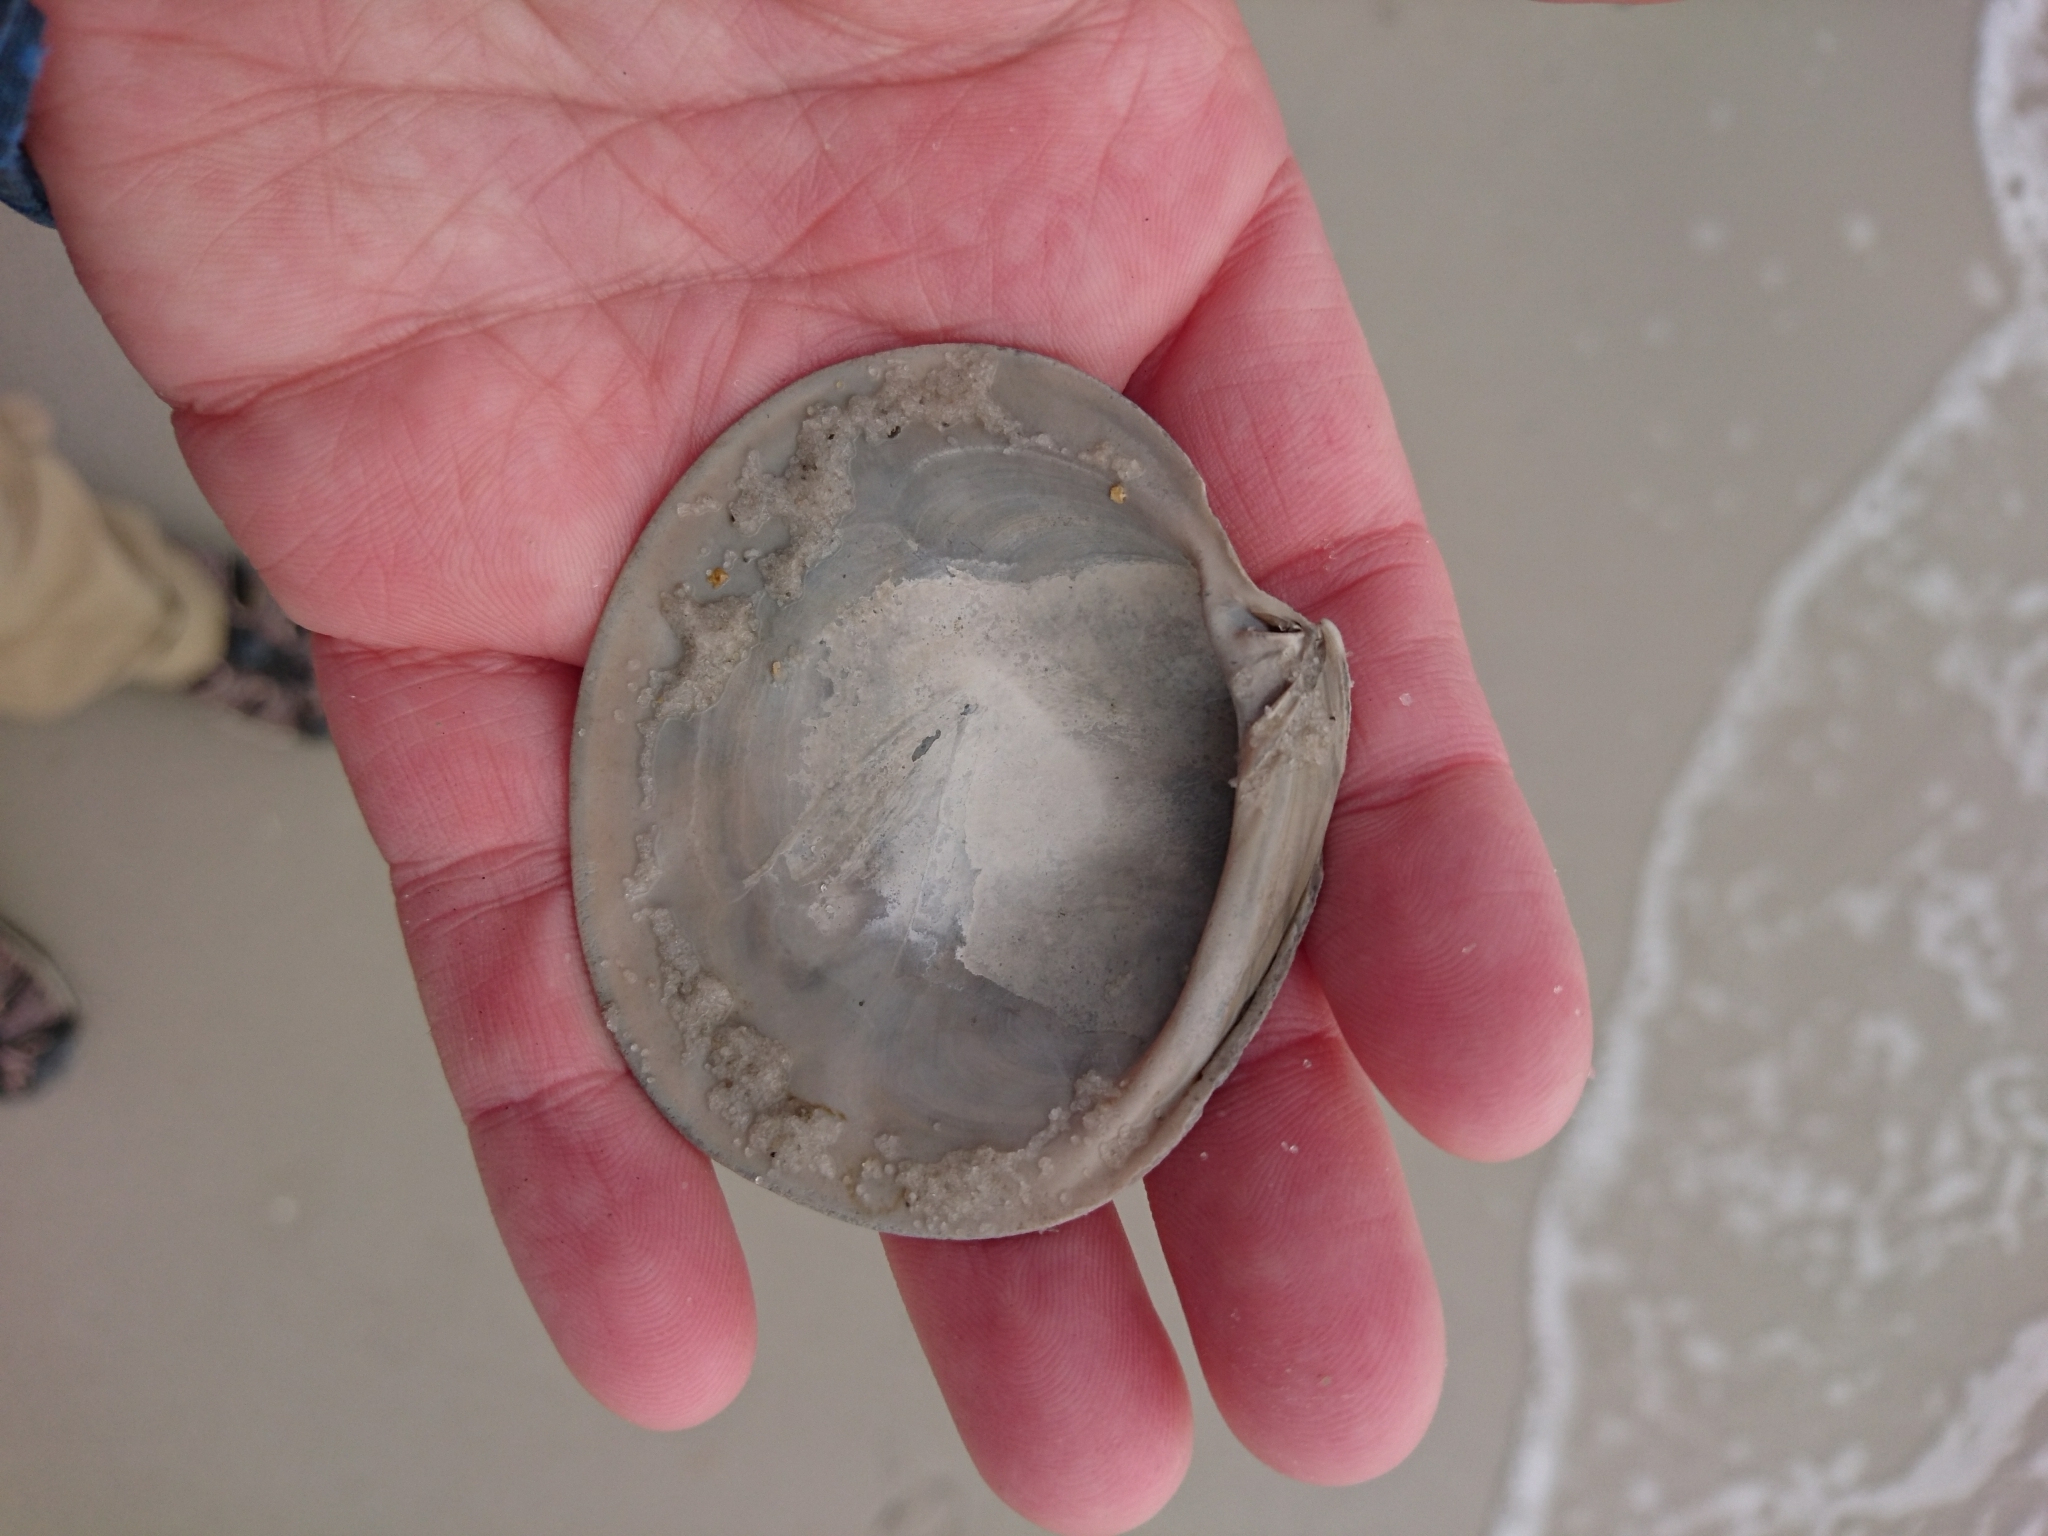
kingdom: Animalia
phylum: Mollusca
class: Bivalvia
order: Venerida
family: Veneridae
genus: Dosinia
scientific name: Dosinia discus
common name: Disk dosinia
